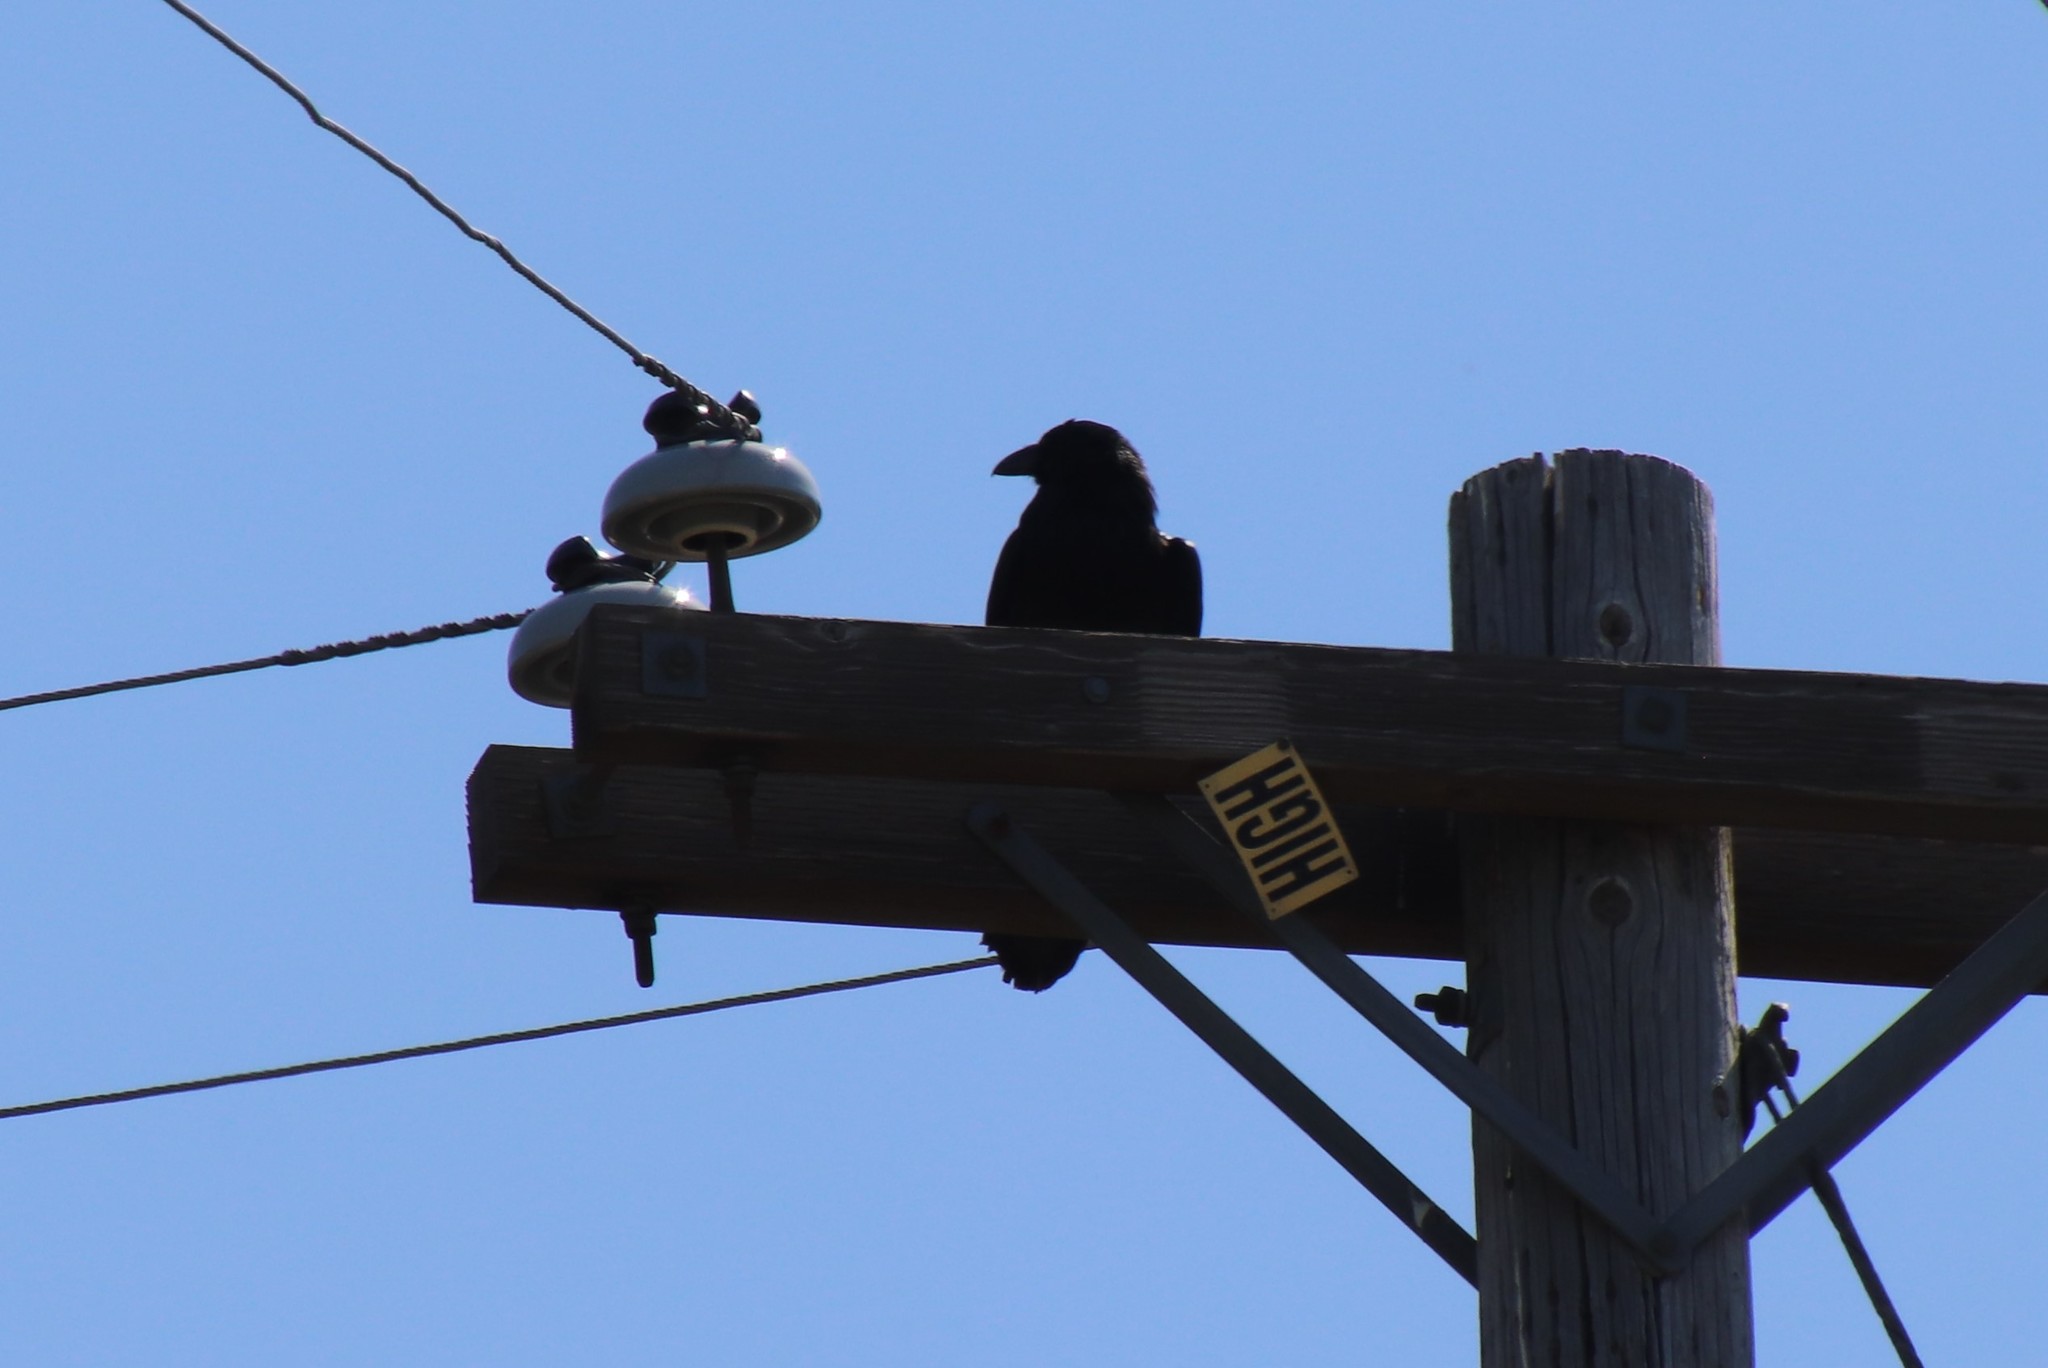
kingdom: Animalia
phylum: Chordata
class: Aves
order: Passeriformes
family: Corvidae
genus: Corvus
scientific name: Corvus corax
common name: Common raven
